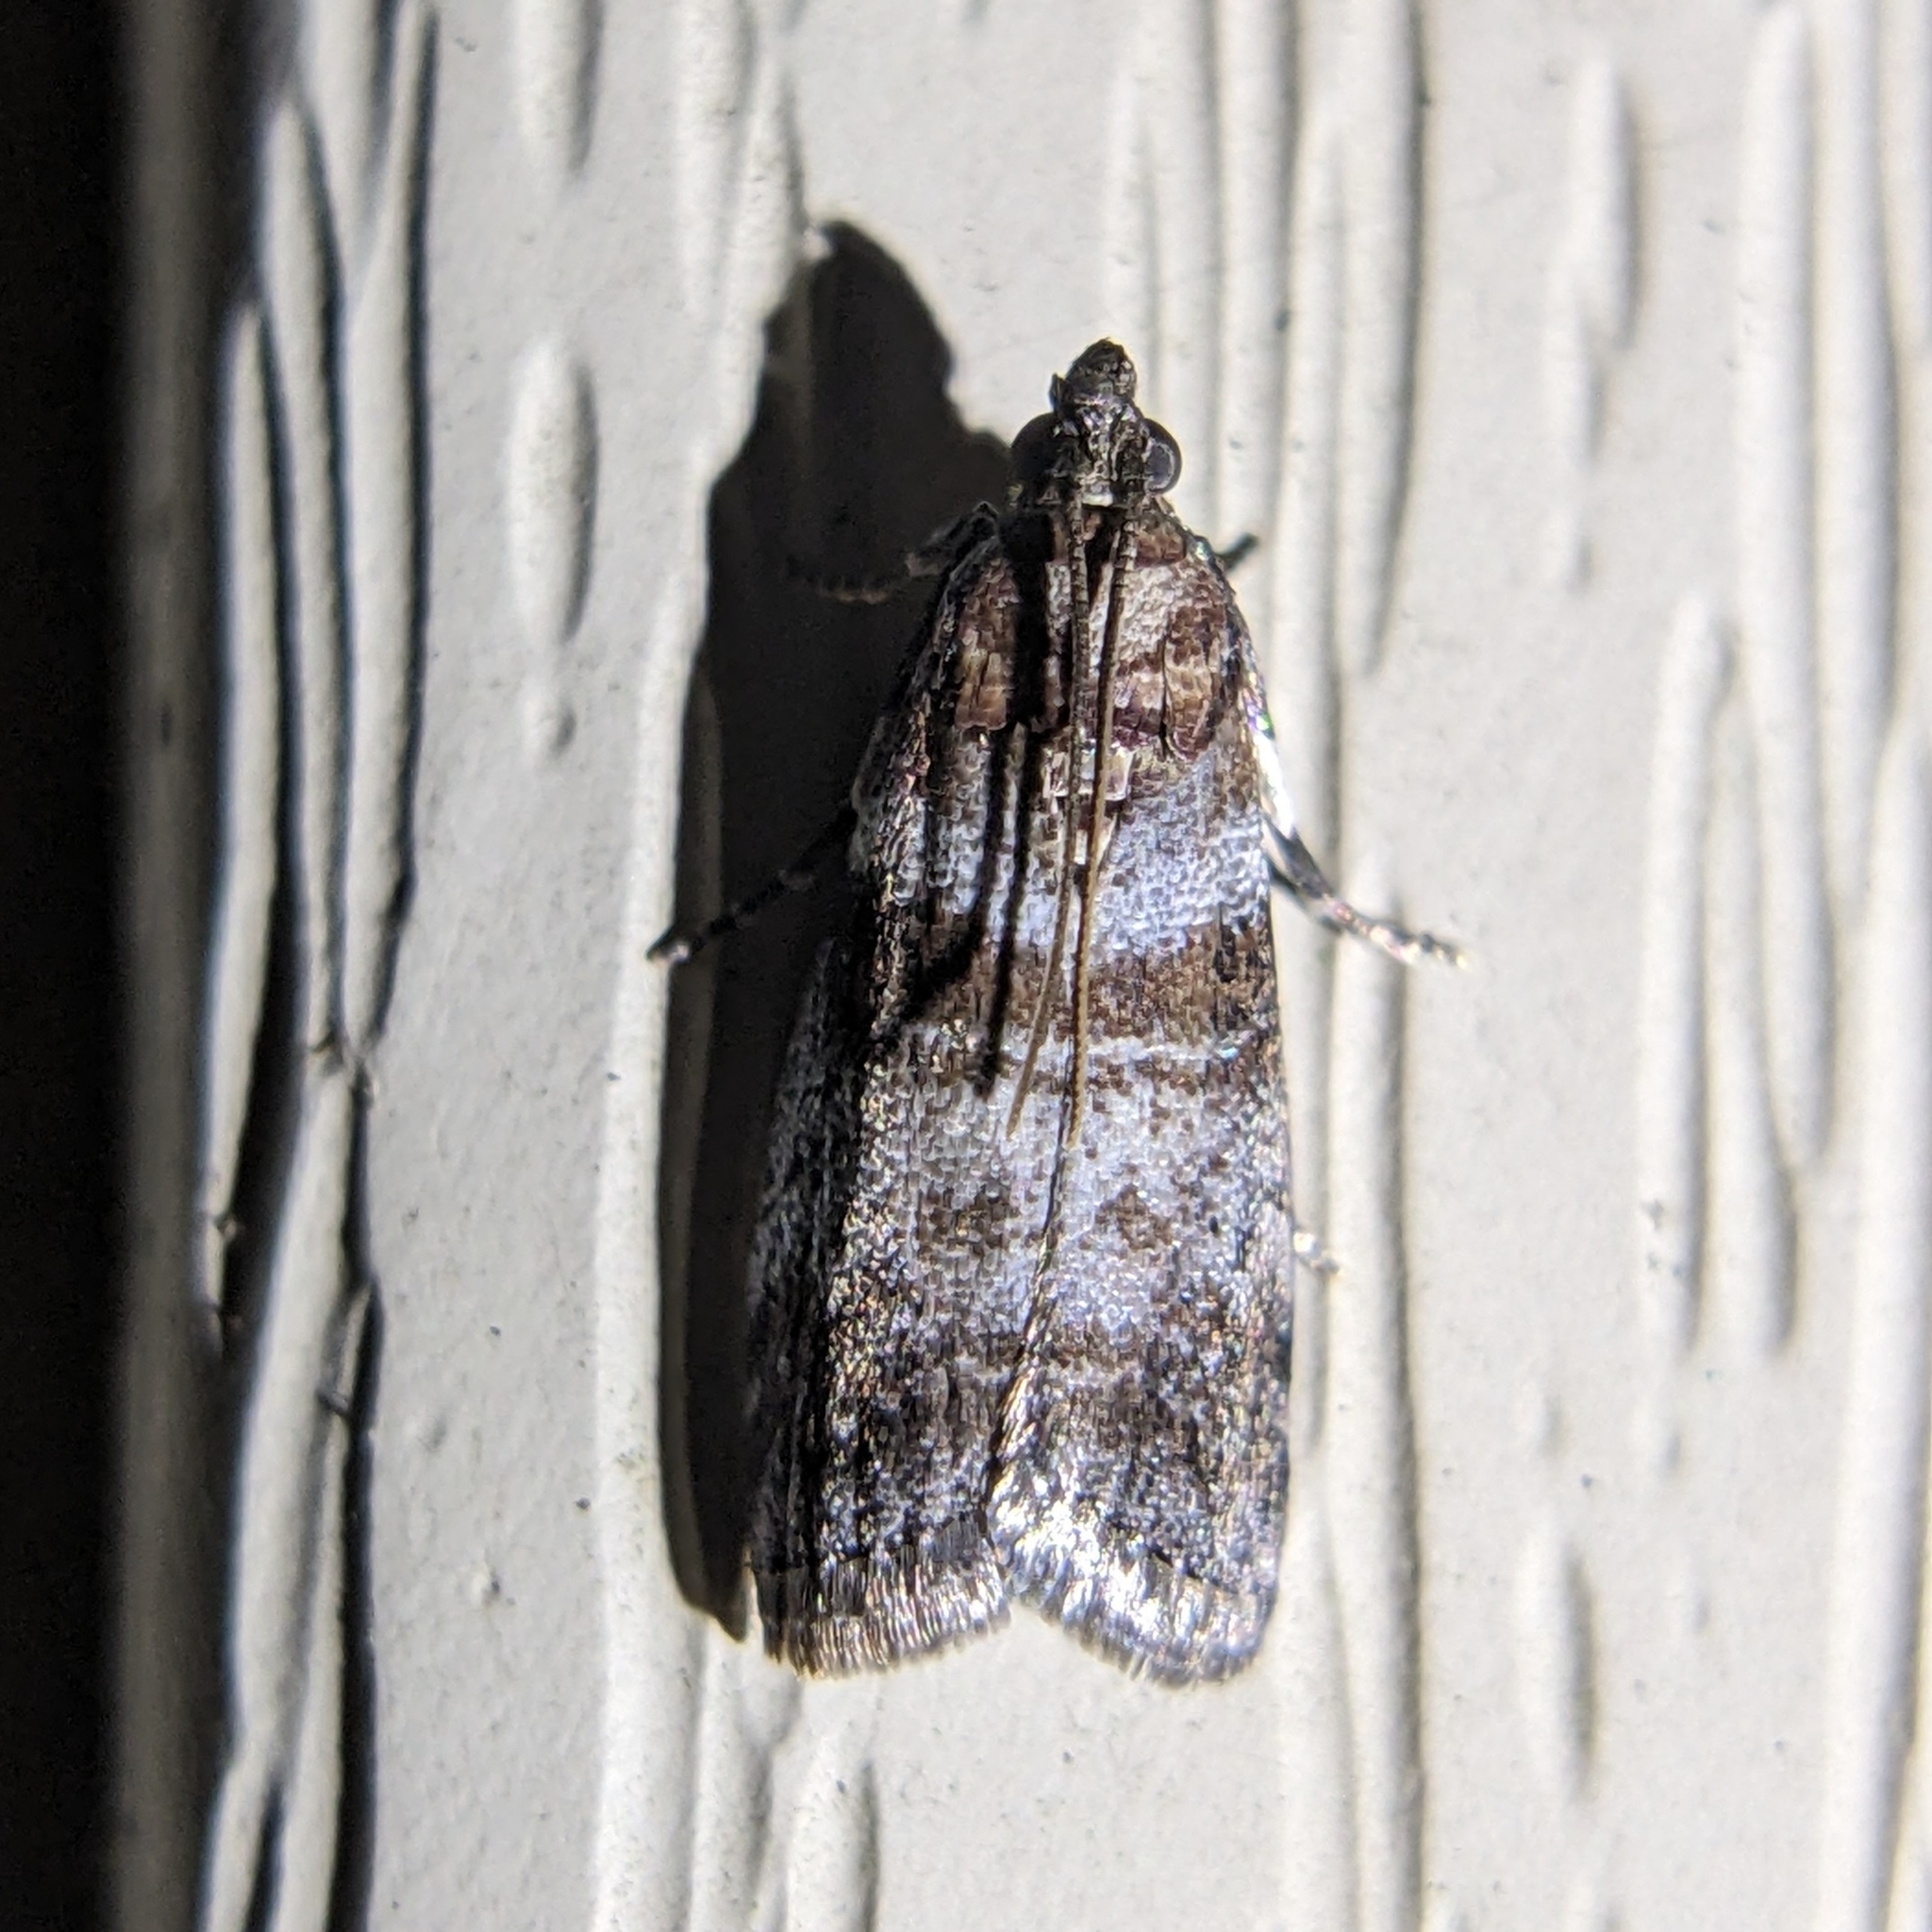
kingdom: Animalia
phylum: Arthropoda
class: Insecta
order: Lepidoptera
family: Pyralidae
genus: Sciota
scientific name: Sciota uvinella
